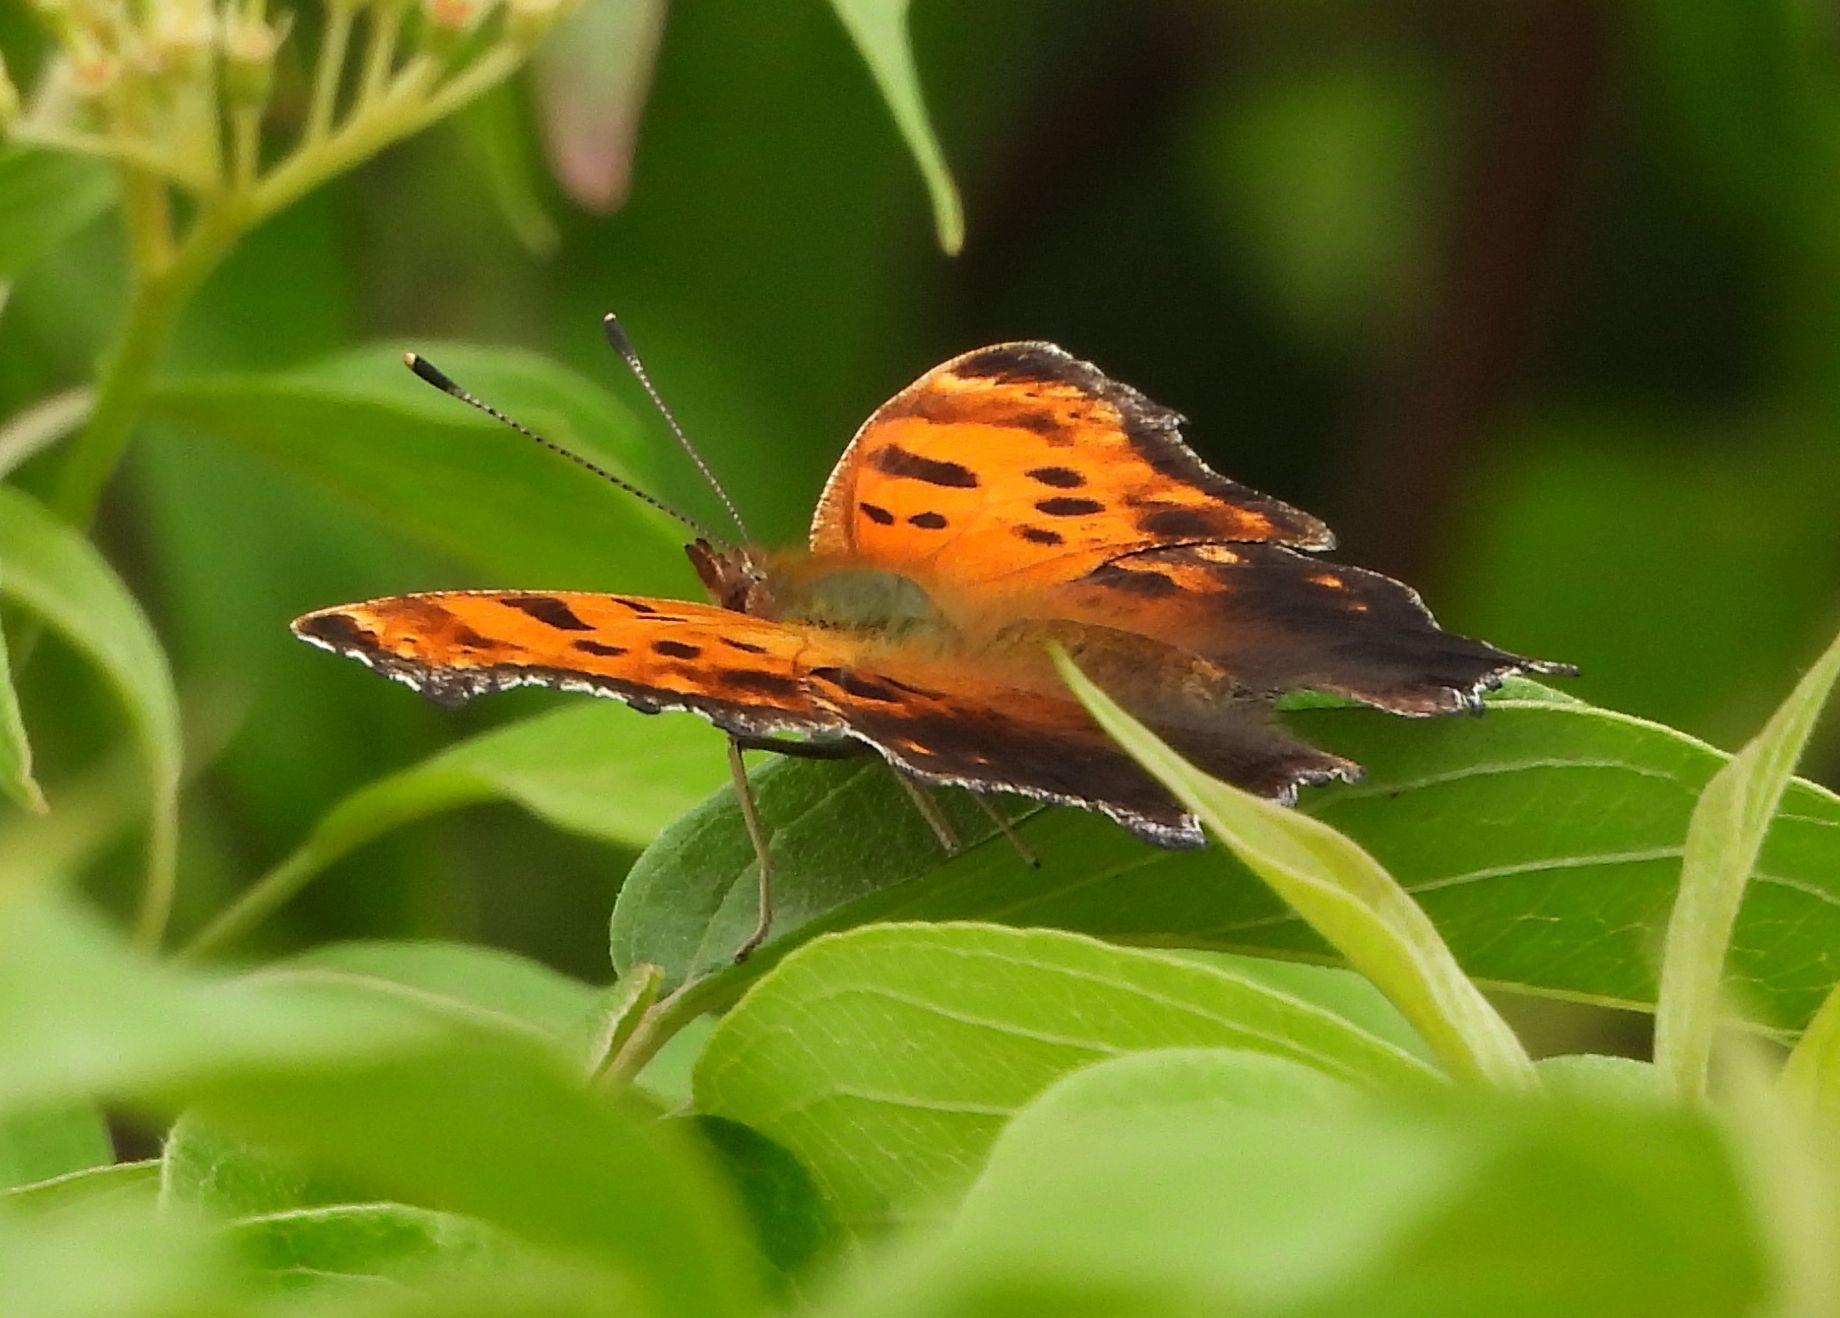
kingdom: Animalia
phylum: Arthropoda
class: Insecta
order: Lepidoptera
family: Nymphalidae
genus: Polygonia
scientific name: Polygonia comma
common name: Eastern comma
